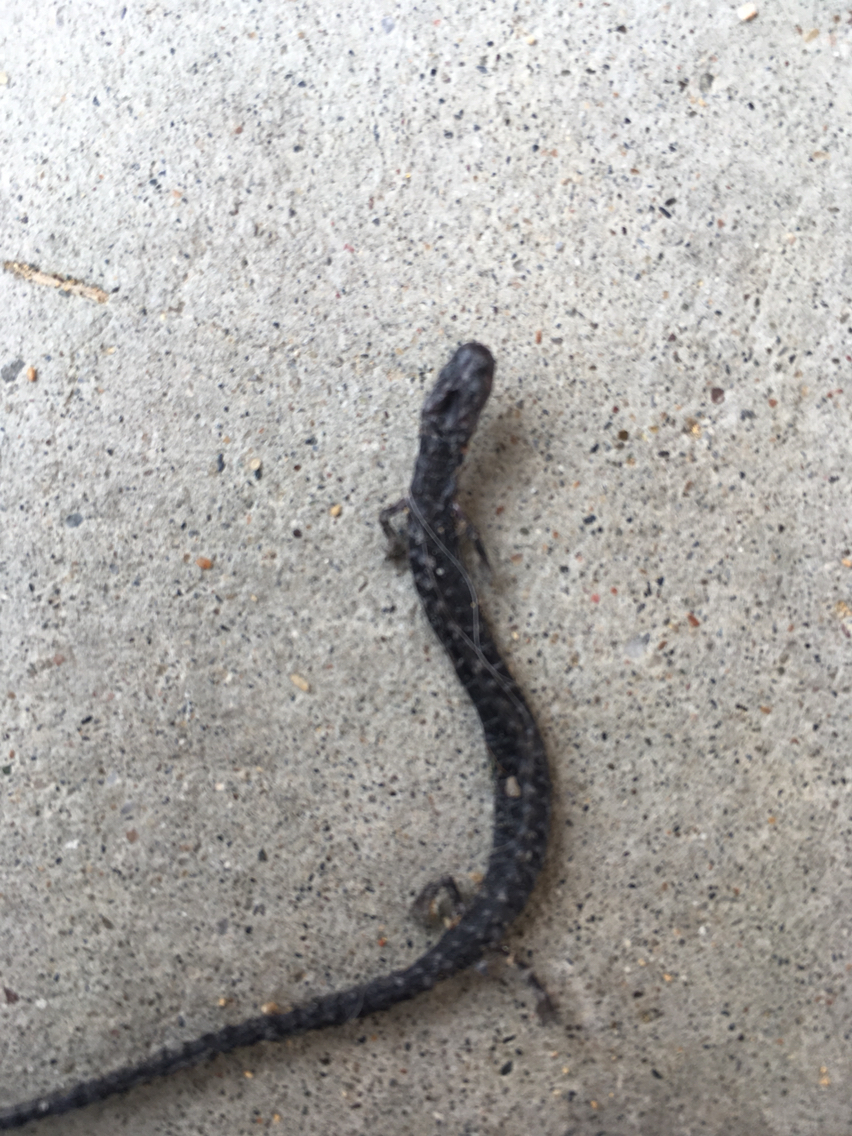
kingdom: Animalia
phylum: Chordata
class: Amphibia
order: Caudata
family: Plethodontidae
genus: Batrachoseps
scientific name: Batrachoseps attenuatus
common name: California slender salamander
